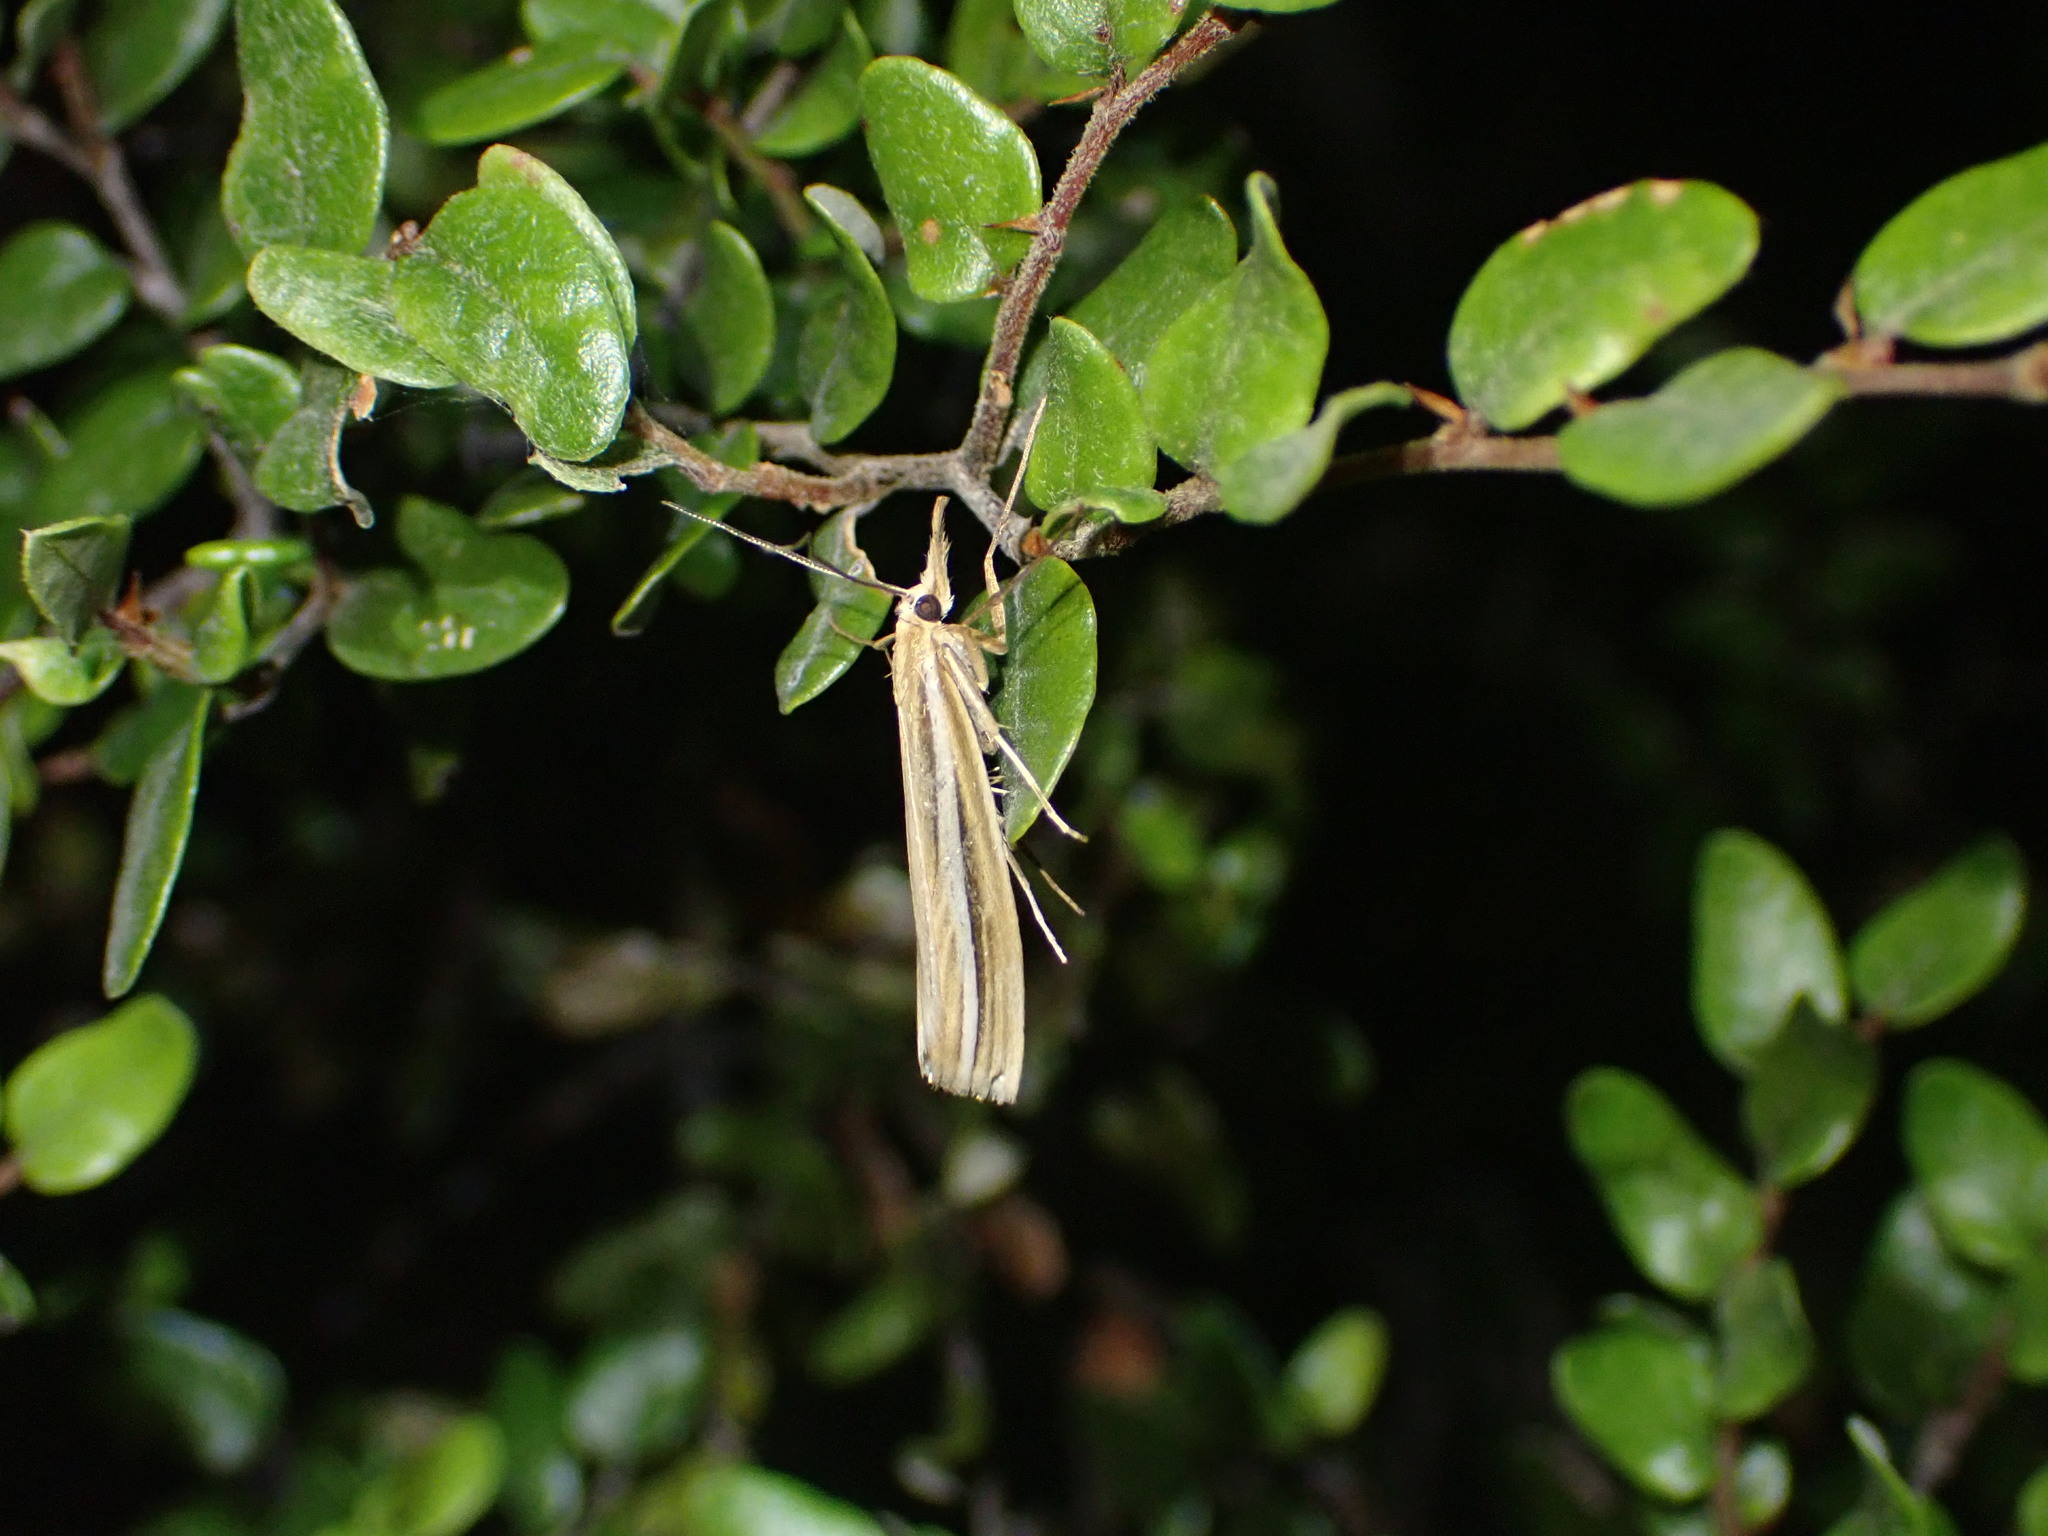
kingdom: Animalia
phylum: Arthropoda
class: Insecta
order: Lepidoptera
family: Crambidae
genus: Orocrambus
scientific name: Orocrambus simplex
